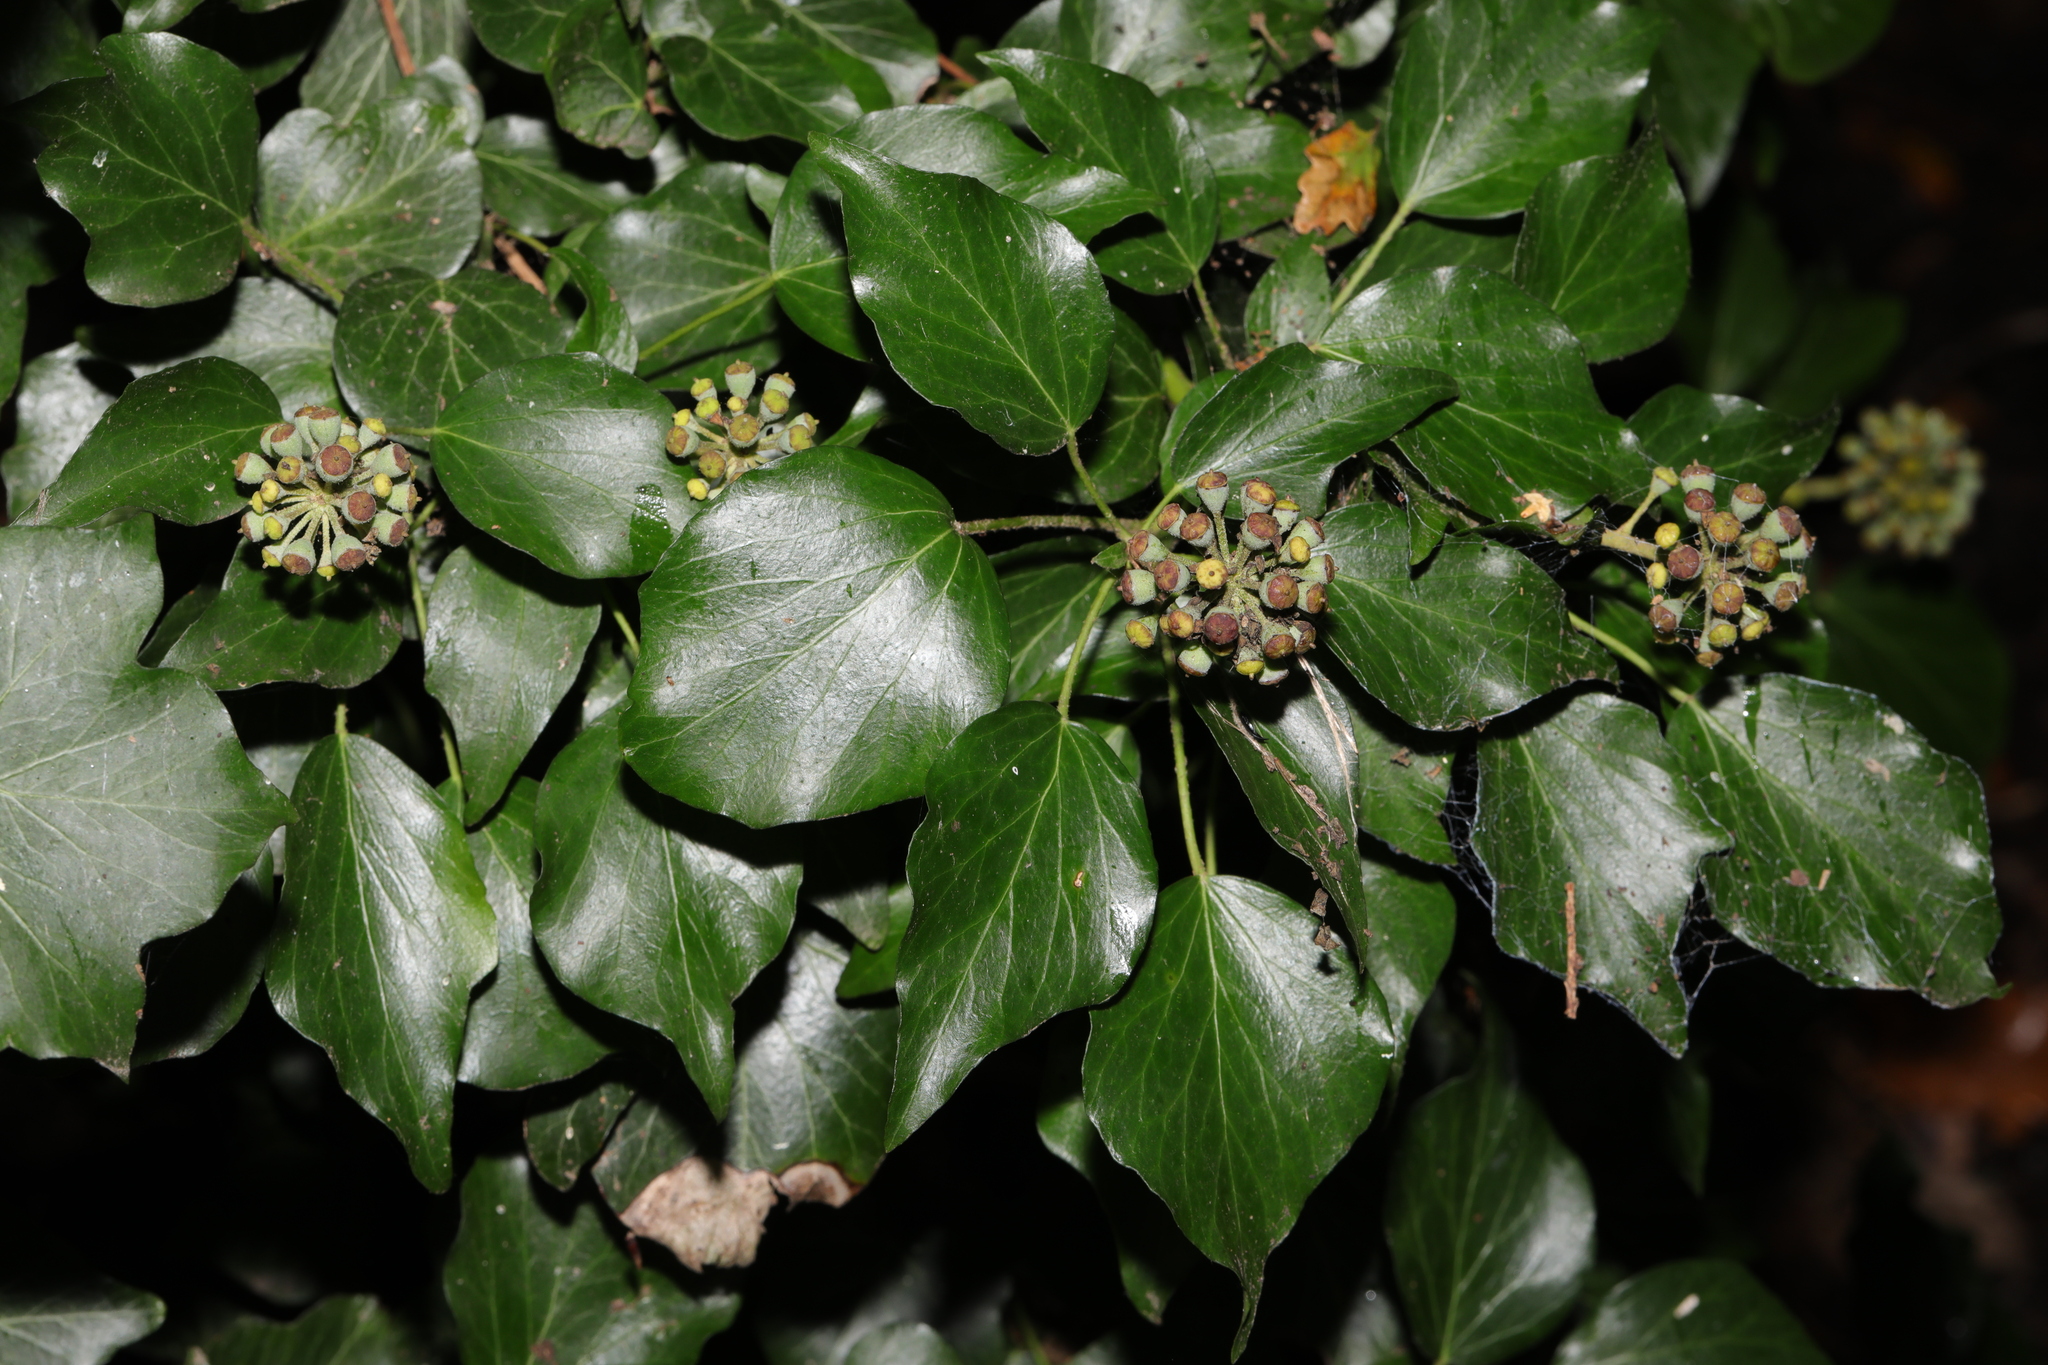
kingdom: Plantae
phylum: Tracheophyta
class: Magnoliopsida
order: Apiales
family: Araliaceae
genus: Hedera
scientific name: Hedera helix
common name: Ivy
